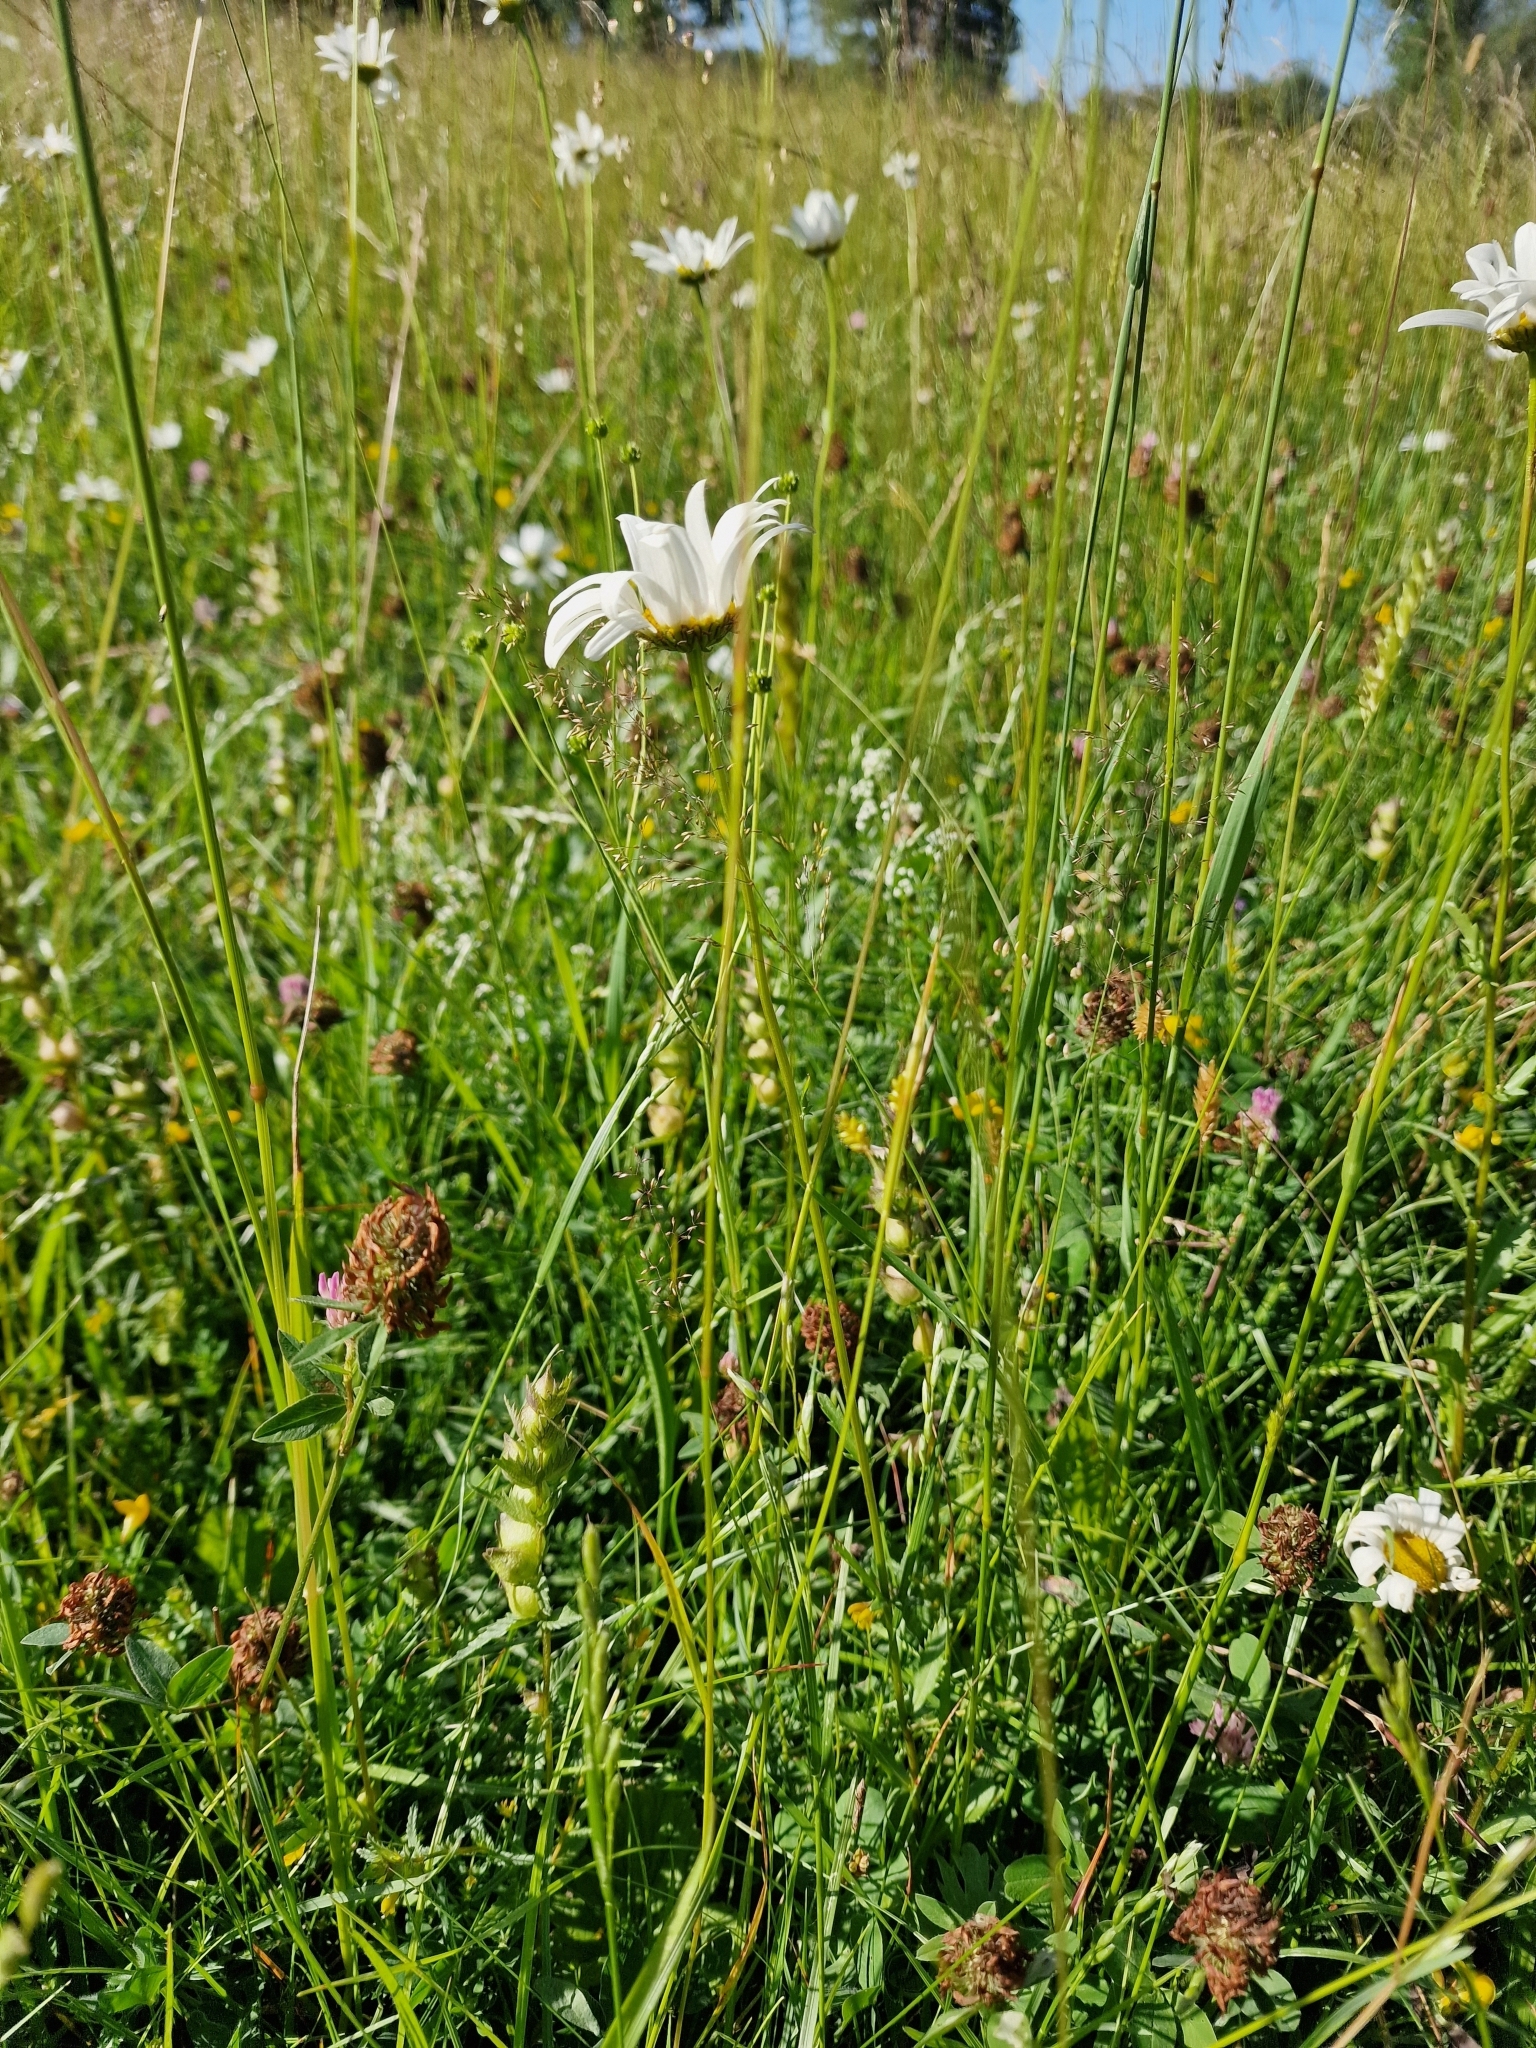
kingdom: Plantae
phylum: Tracheophyta
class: Magnoliopsida
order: Asterales
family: Asteraceae
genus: Leucanthemum
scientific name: Leucanthemum vulgare
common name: Oxeye daisy
